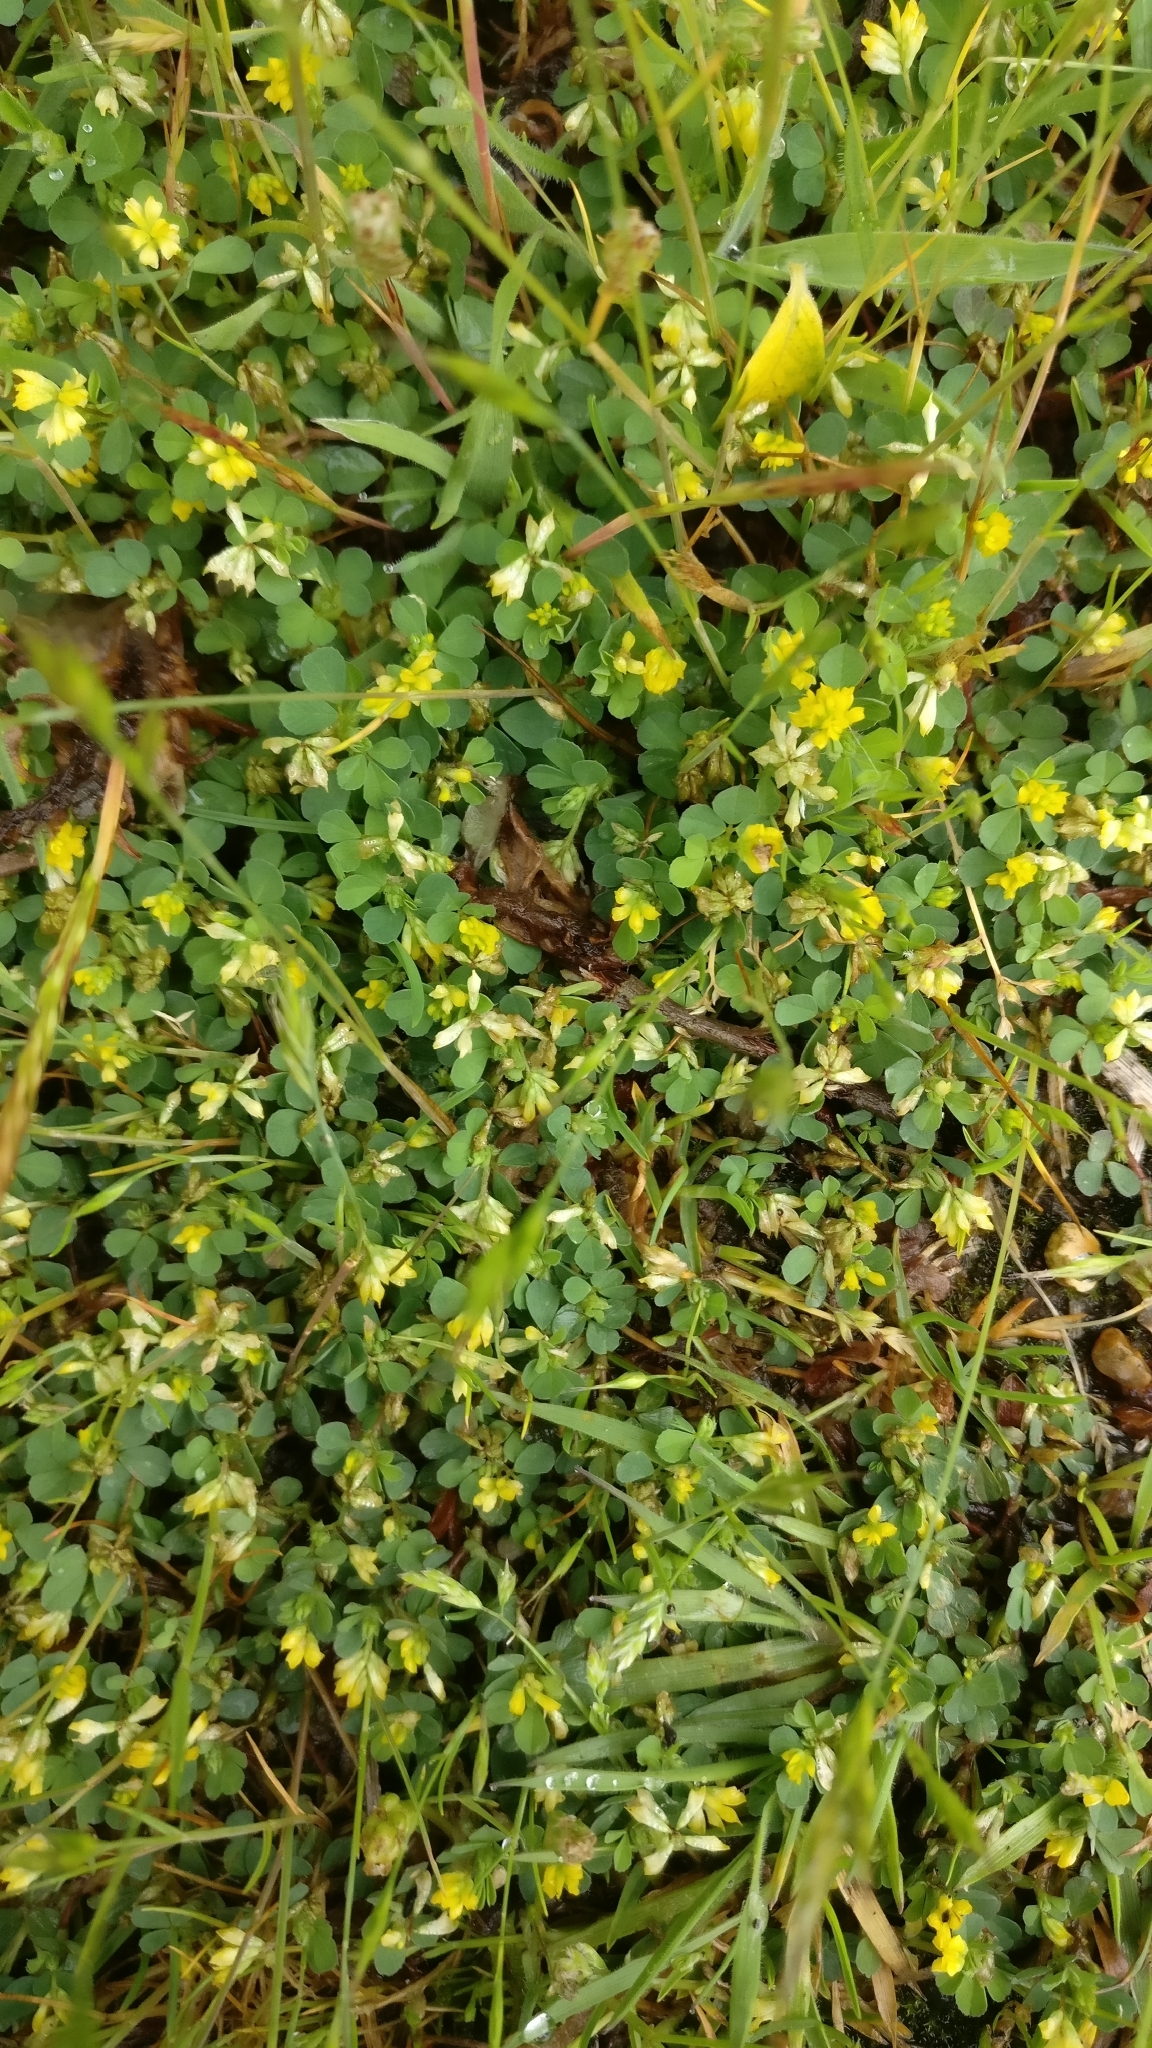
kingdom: Plantae
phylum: Tracheophyta
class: Magnoliopsida
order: Fabales
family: Fabaceae
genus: Trifolium
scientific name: Trifolium dubium
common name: Suckling clover
